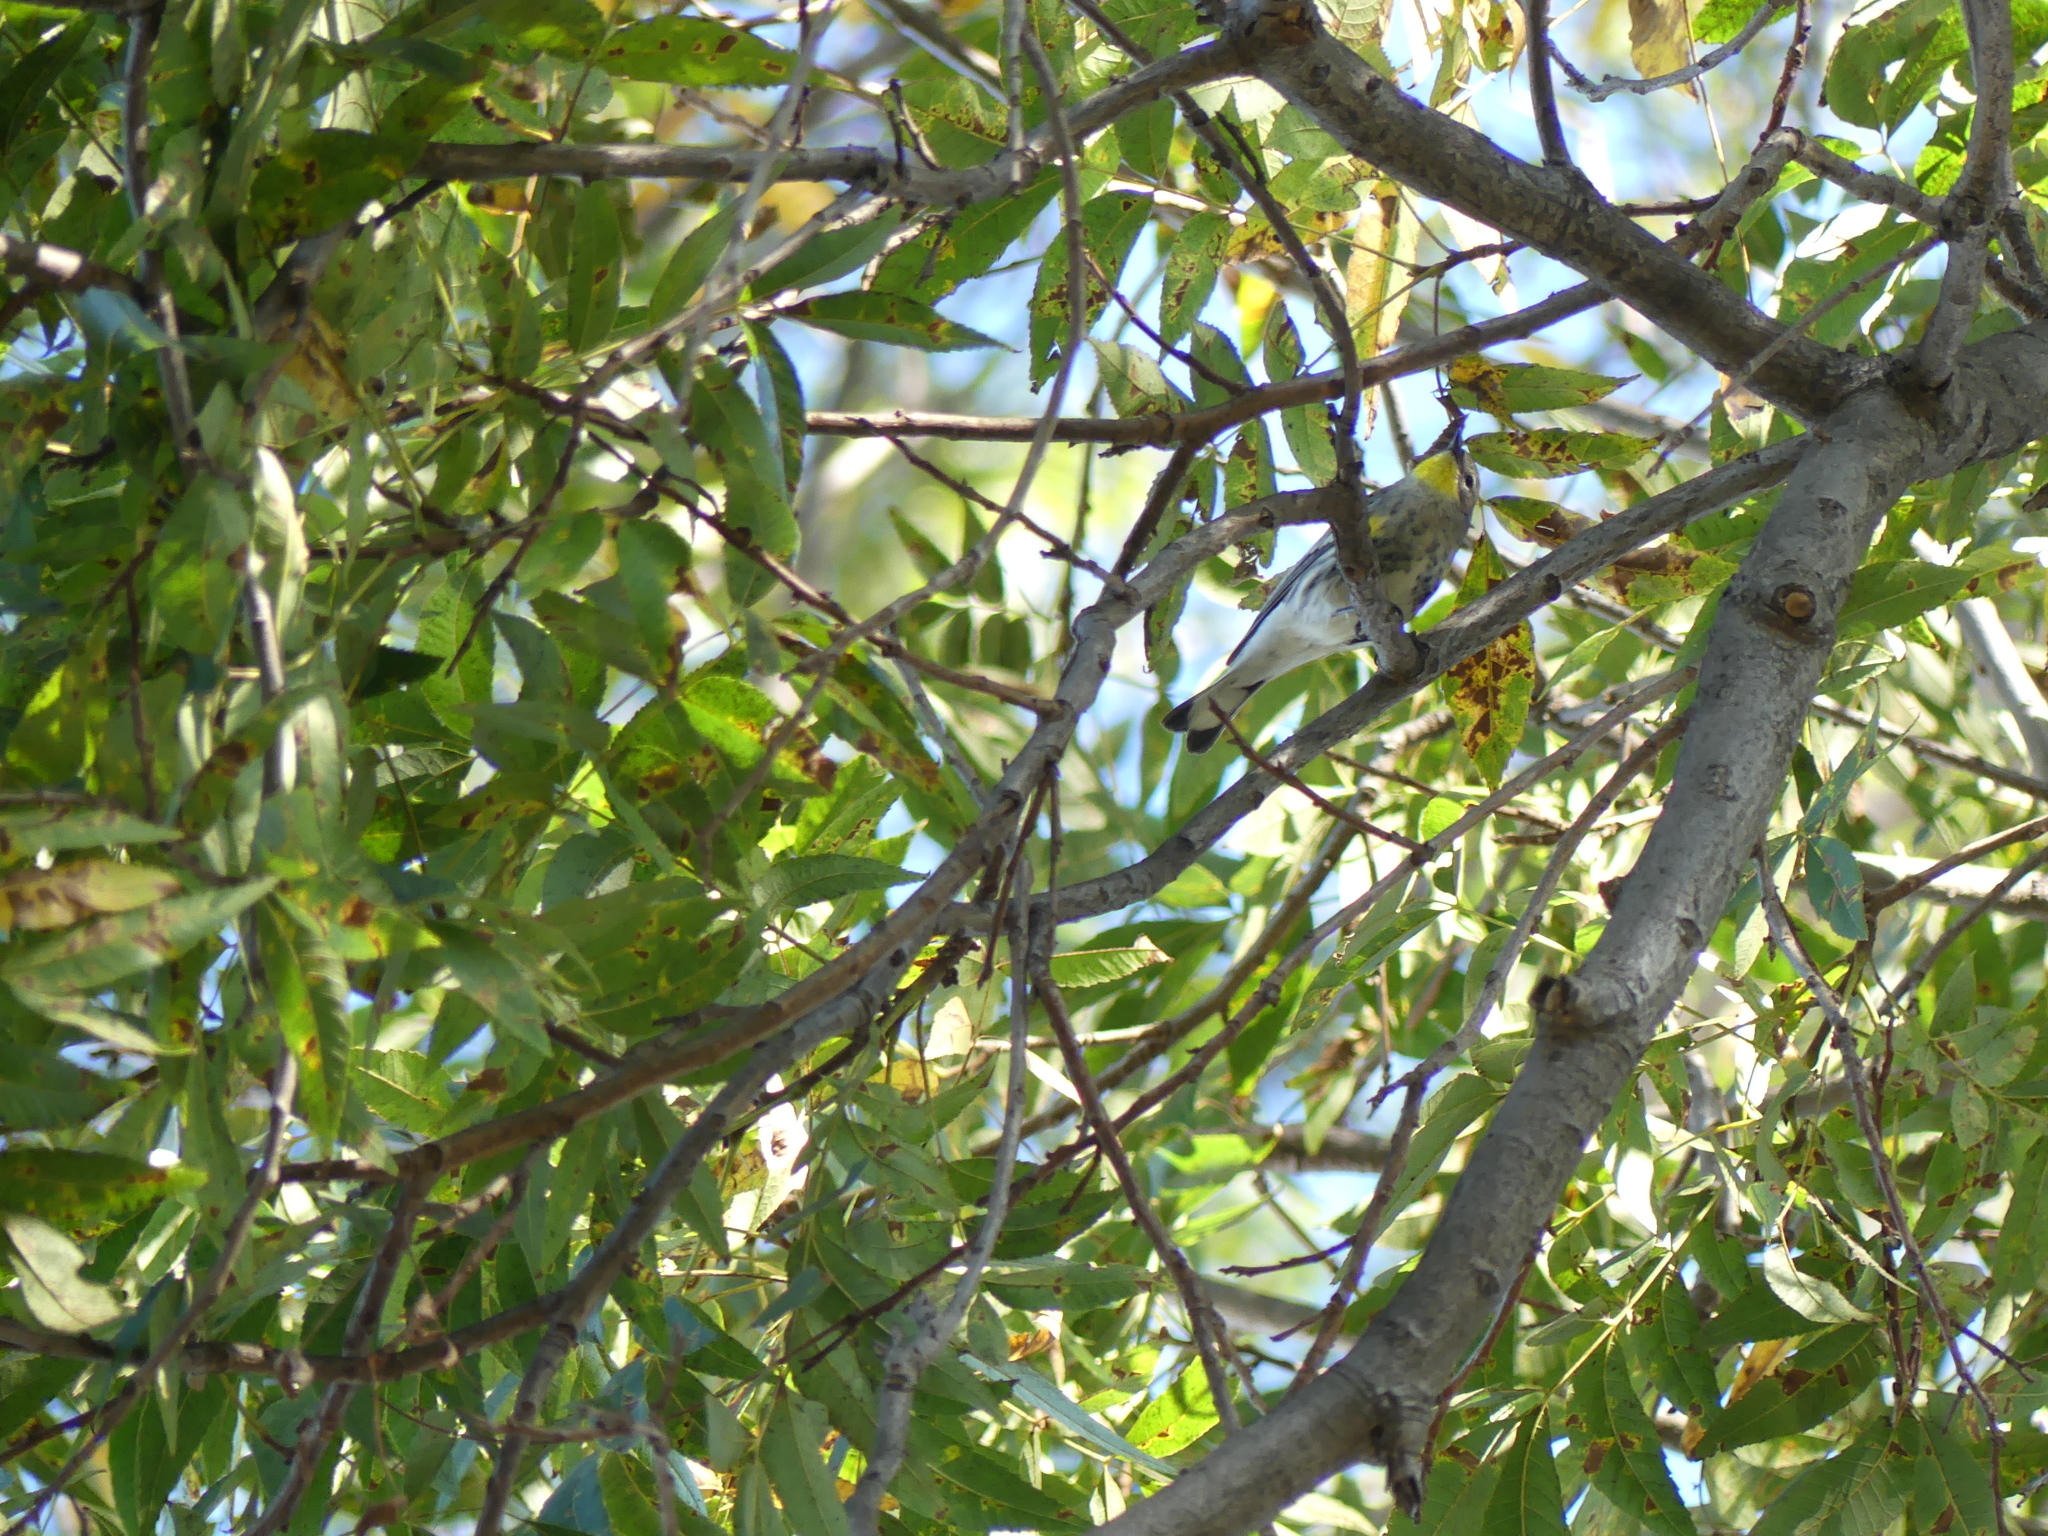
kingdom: Animalia
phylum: Chordata
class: Aves
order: Passeriformes
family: Parulidae
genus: Setophaga
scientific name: Setophaga coronata
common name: Myrtle warbler
